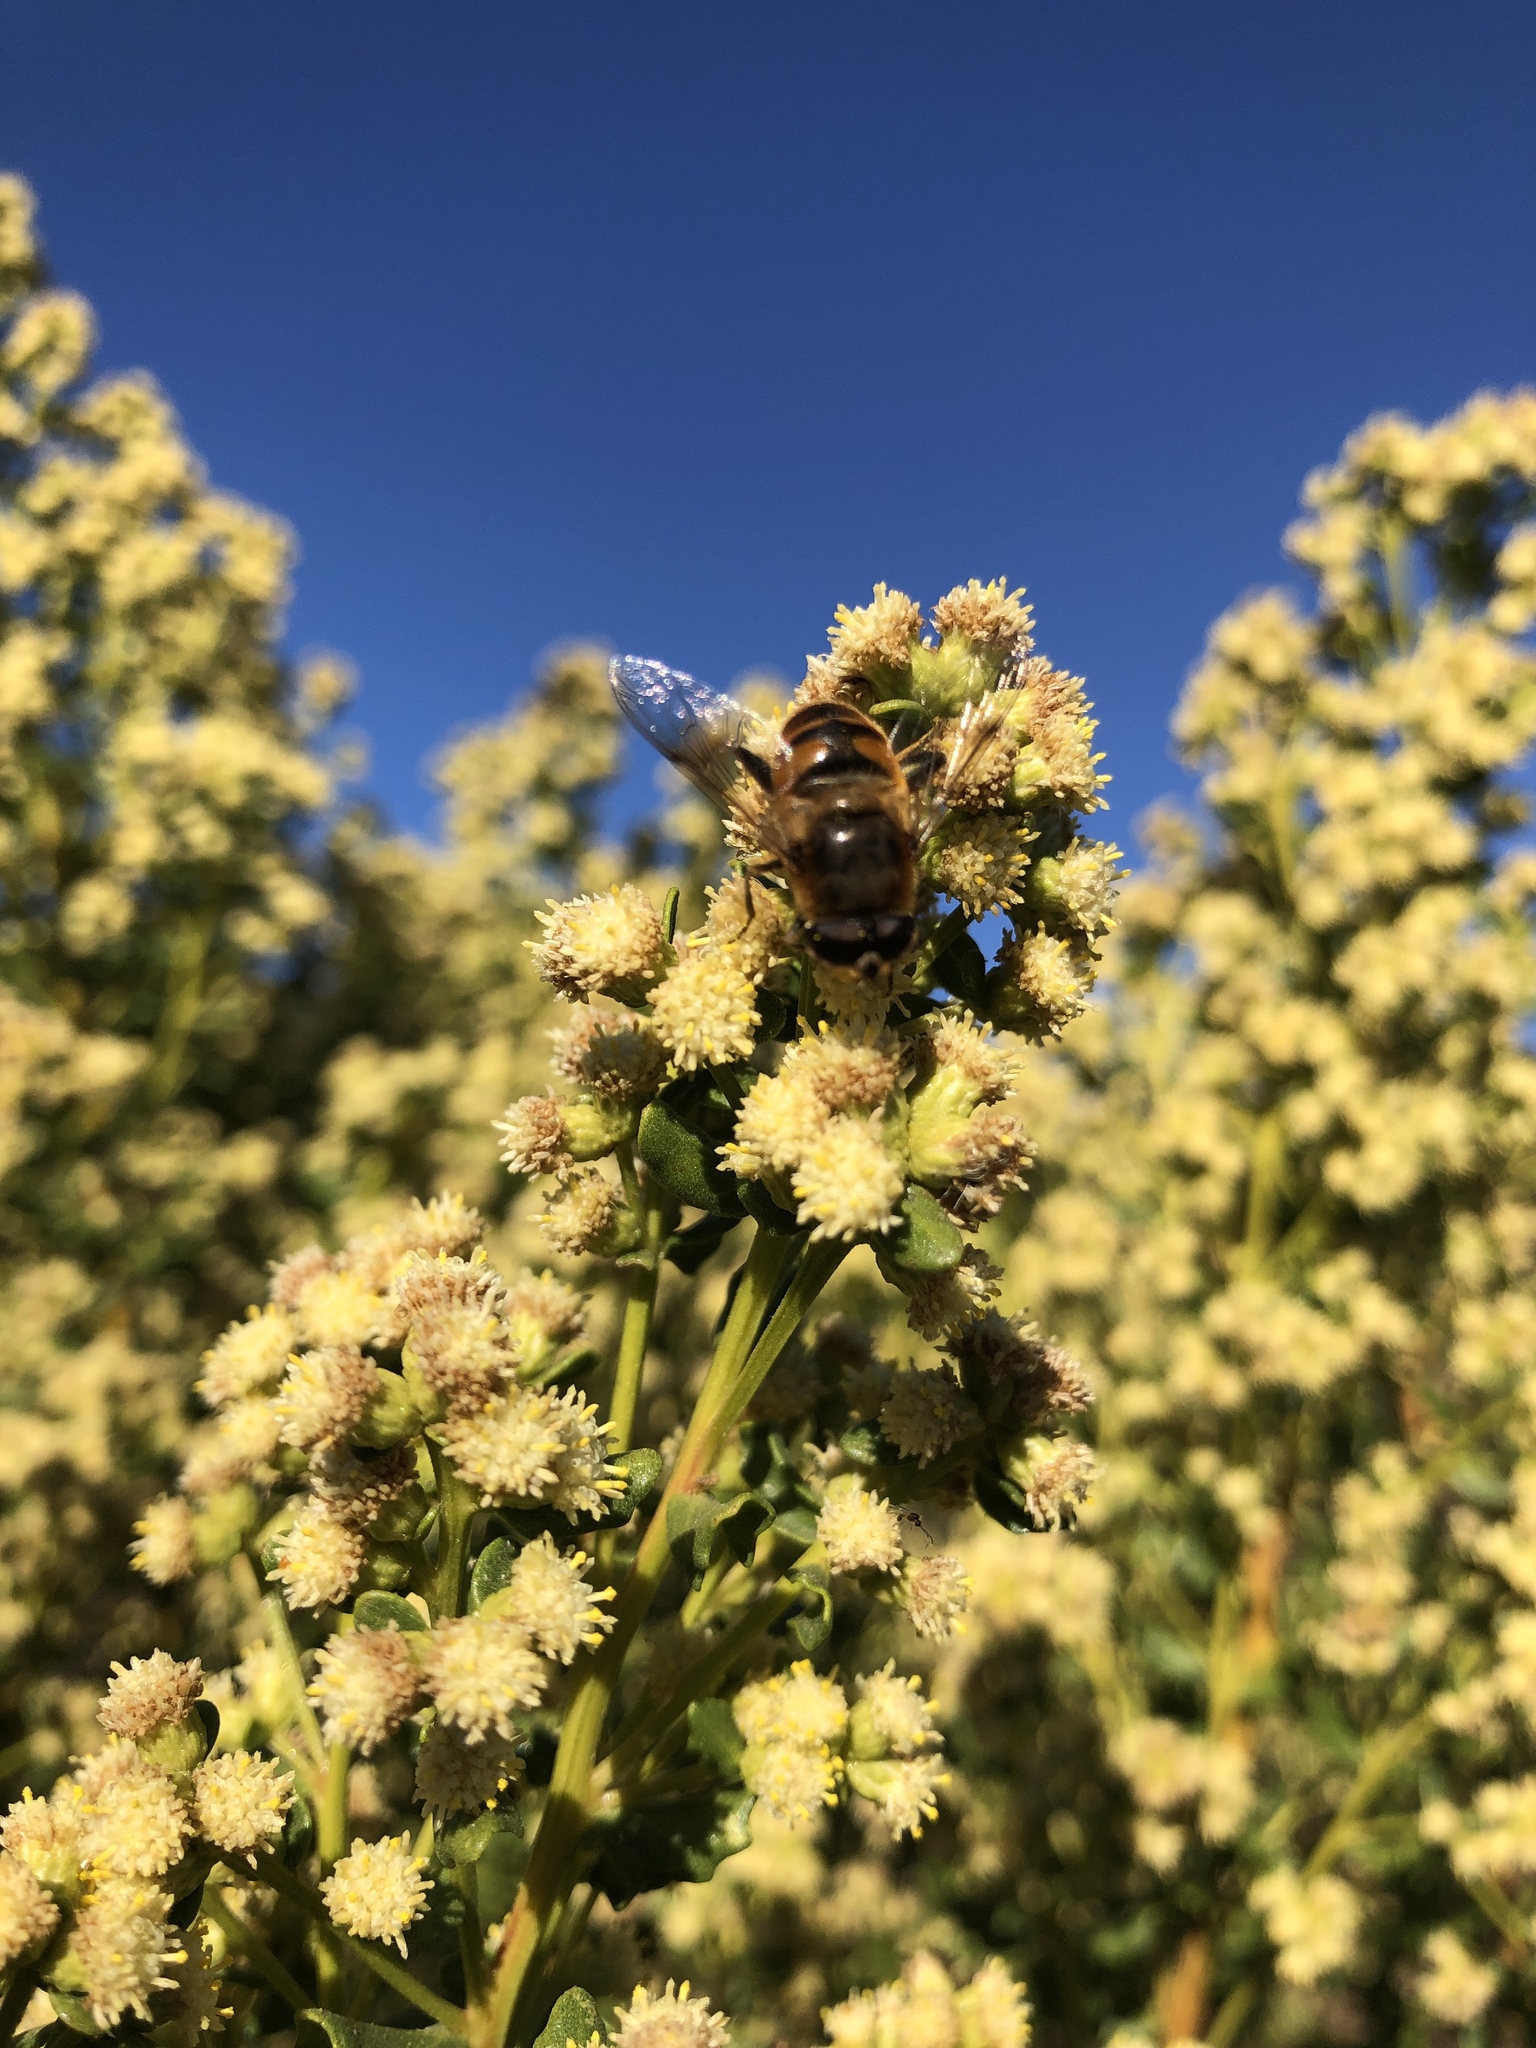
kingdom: Animalia
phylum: Arthropoda
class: Insecta
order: Diptera
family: Syrphidae
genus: Eristalis
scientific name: Eristalis tenax
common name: Drone fly
